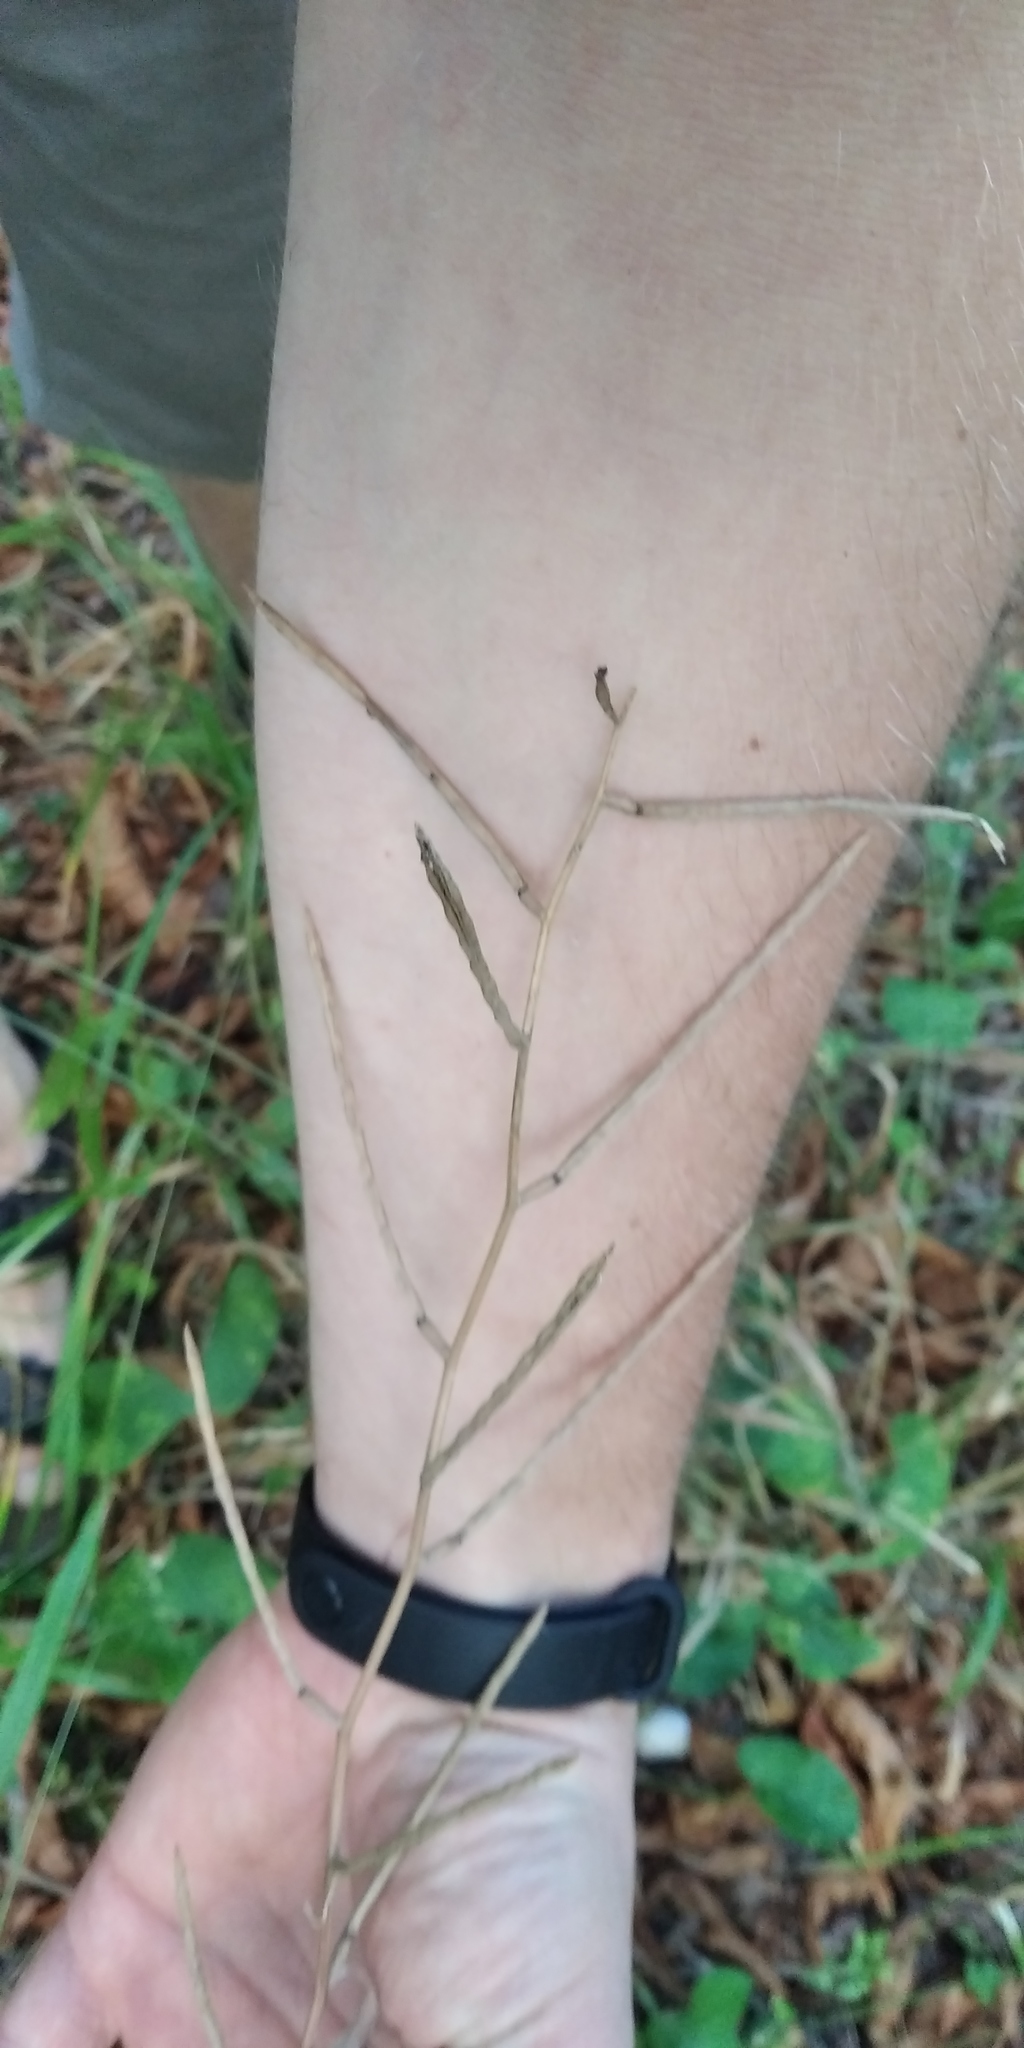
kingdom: Plantae
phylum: Tracheophyta
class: Magnoliopsida
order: Brassicales
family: Brassicaceae
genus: Alliaria
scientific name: Alliaria petiolata
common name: Garlic mustard
